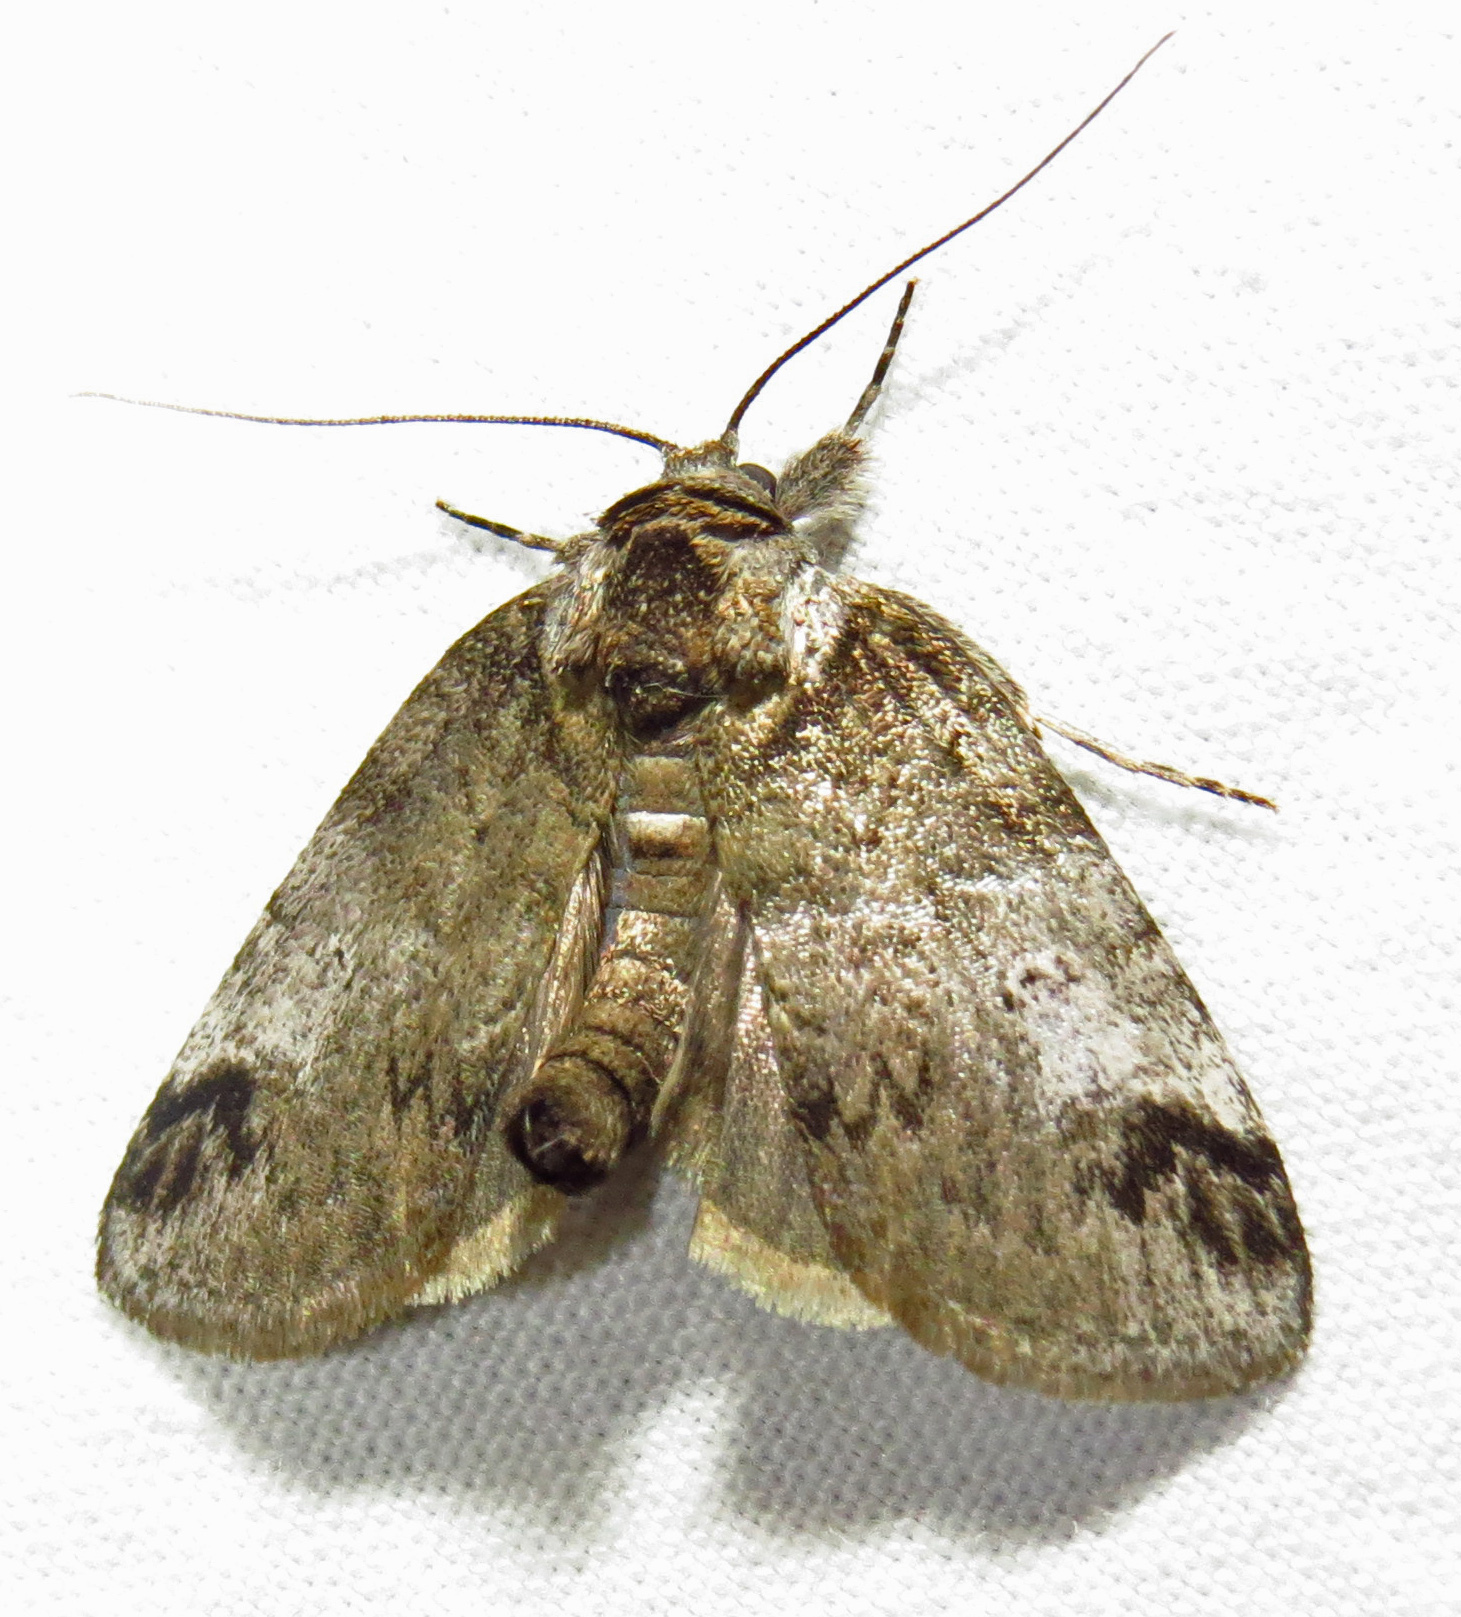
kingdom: Animalia
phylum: Arthropoda
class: Insecta
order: Lepidoptera
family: Nolidae
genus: Baileya
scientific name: Baileya dormitans
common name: Sleeping baileya moth
